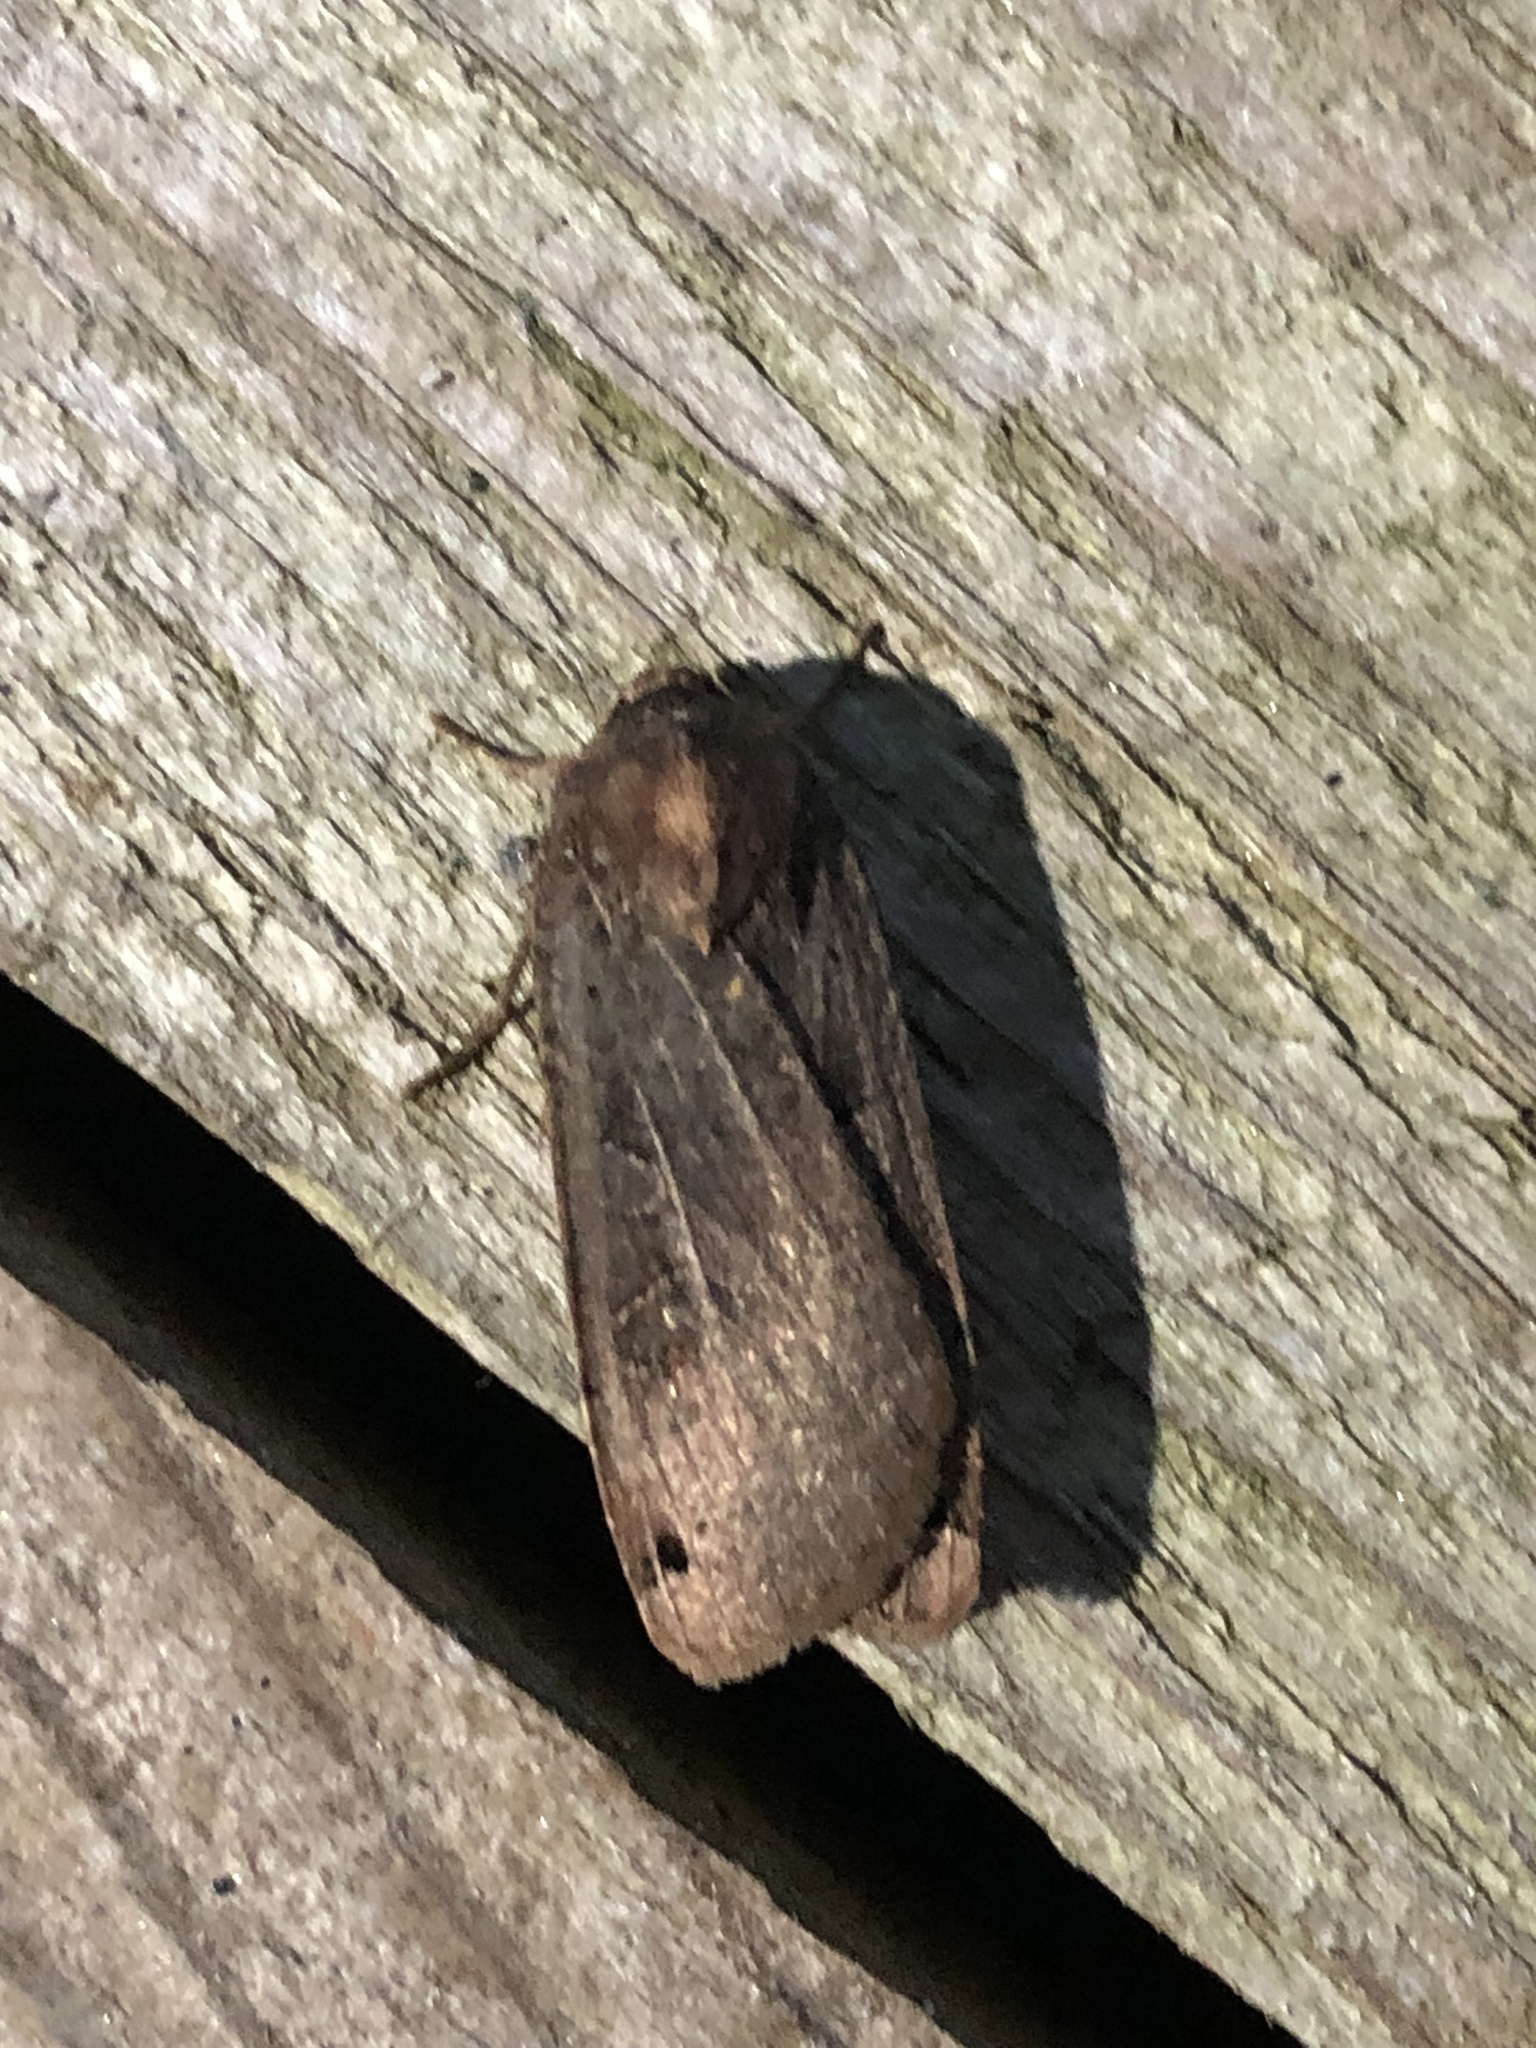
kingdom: Animalia
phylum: Arthropoda
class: Insecta
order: Lepidoptera
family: Noctuidae
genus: Noctua
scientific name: Noctua pronuba
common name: Large yellow underwing
